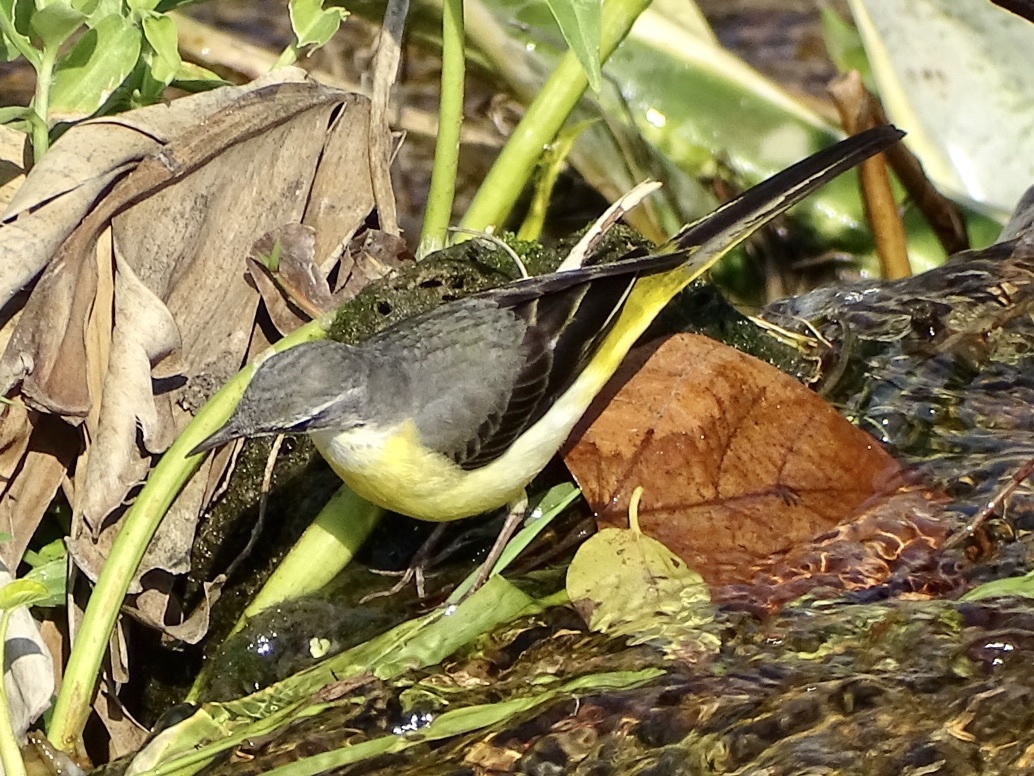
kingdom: Animalia
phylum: Chordata
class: Aves
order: Passeriformes
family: Motacillidae
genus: Motacilla
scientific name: Motacilla cinerea
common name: Grey wagtail
